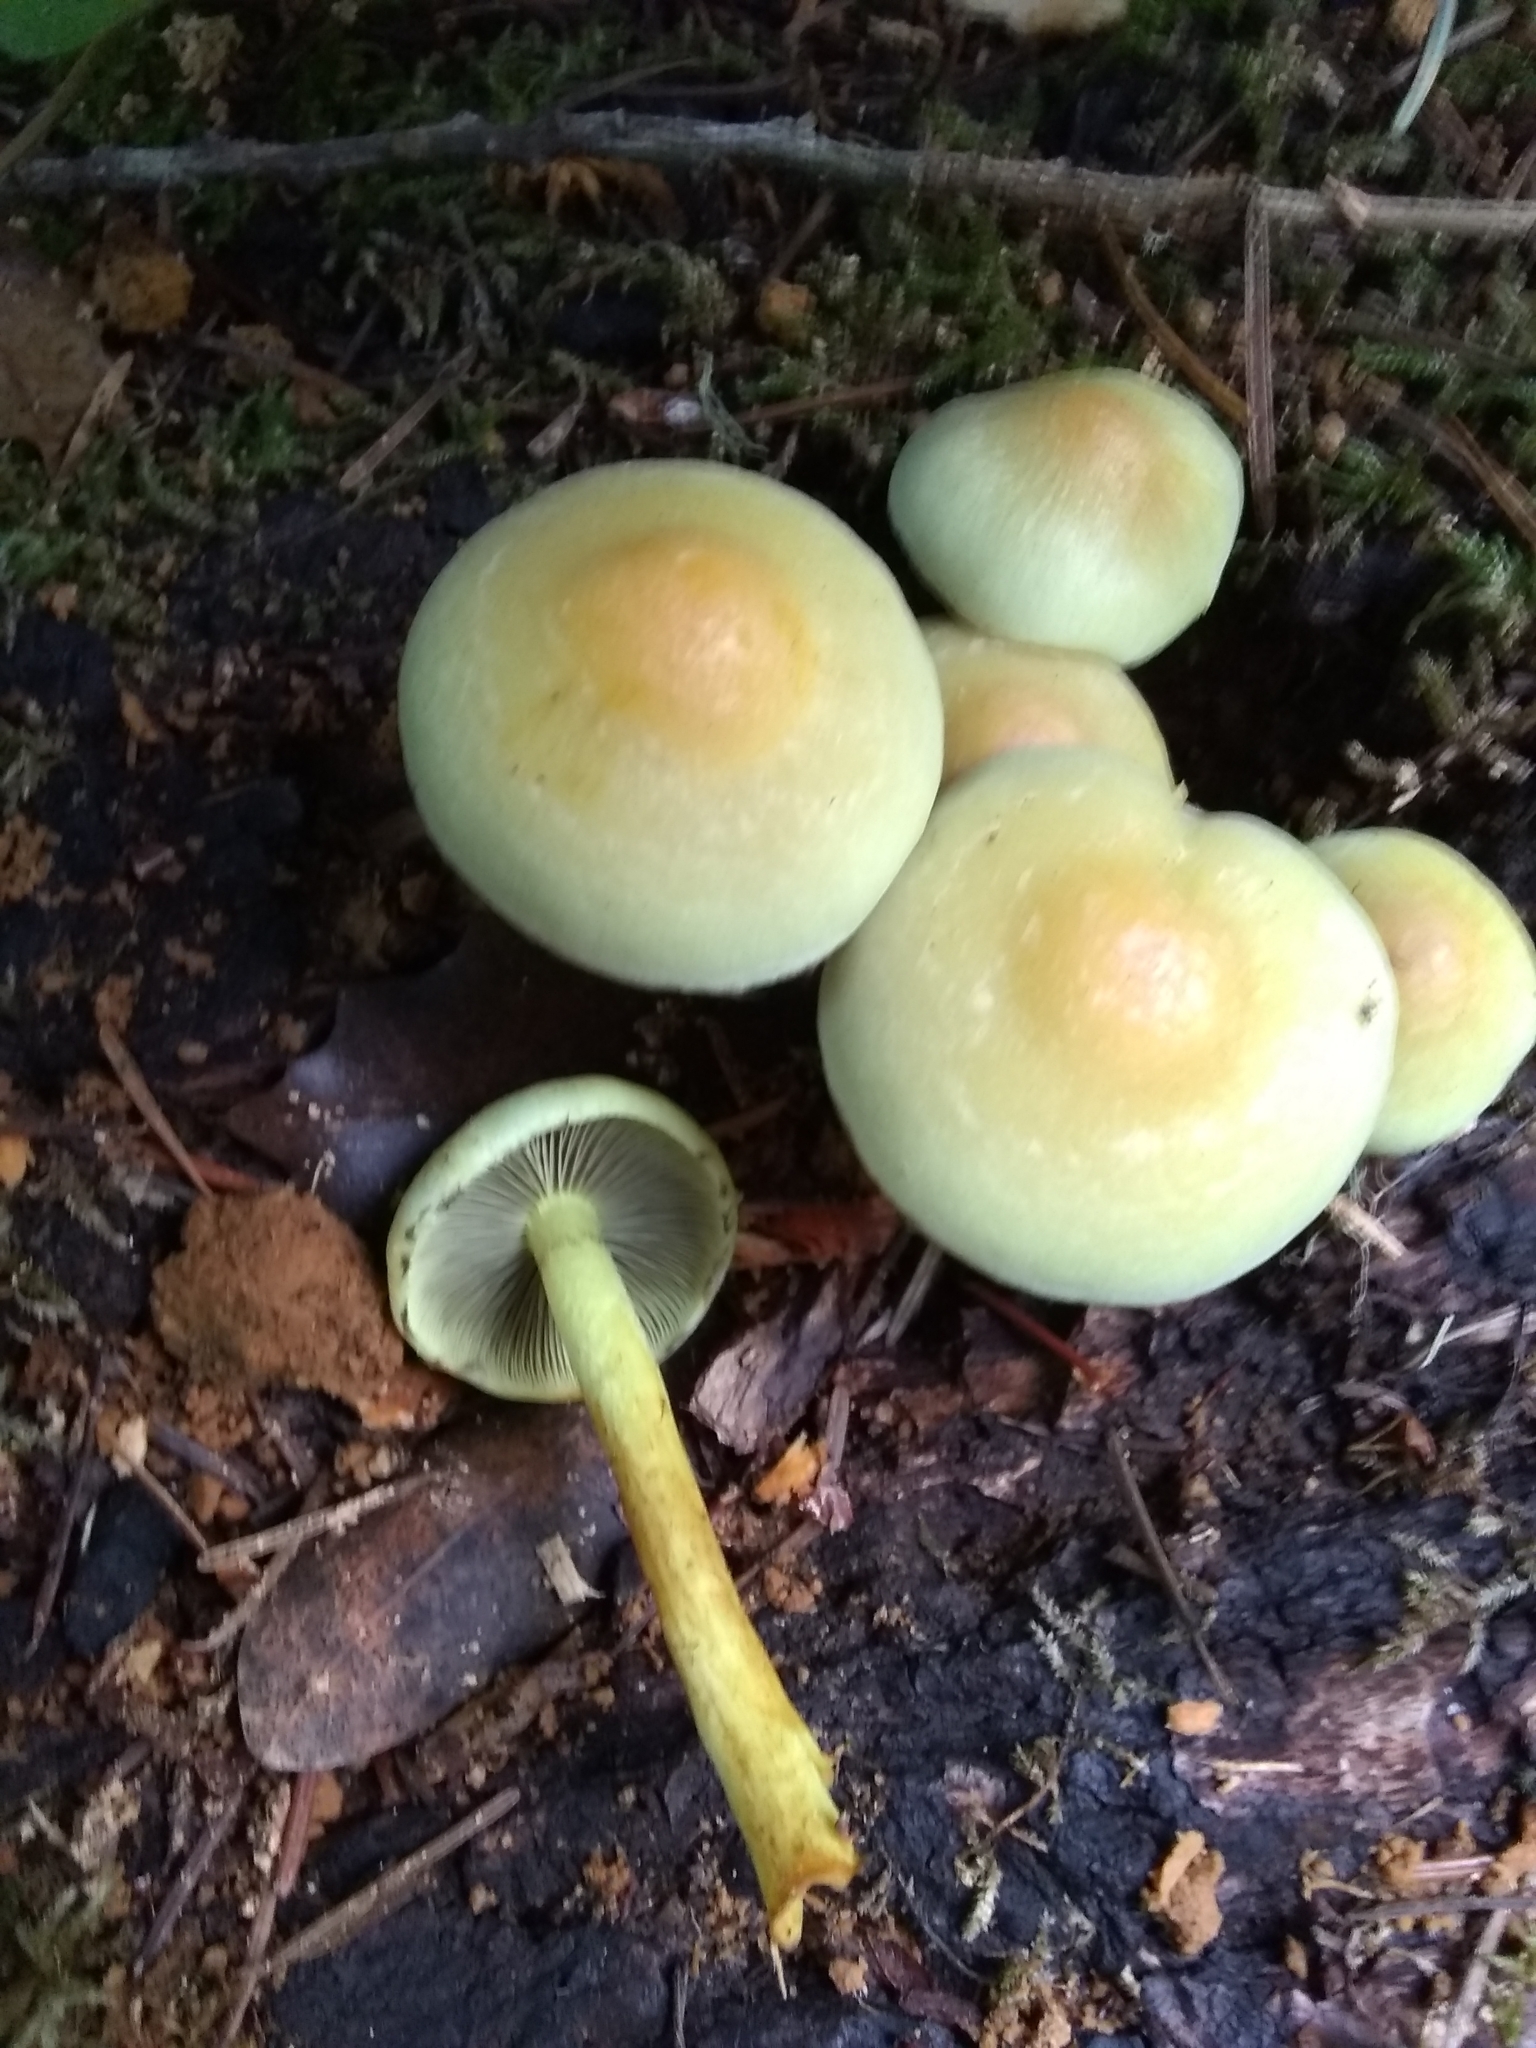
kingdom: Fungi
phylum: Basidiomycota
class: Agaricomycetes
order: Agaricales
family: Strophariaceae
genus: Hypholoma
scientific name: Hypholoma fasciculare
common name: Sulphur tuft
